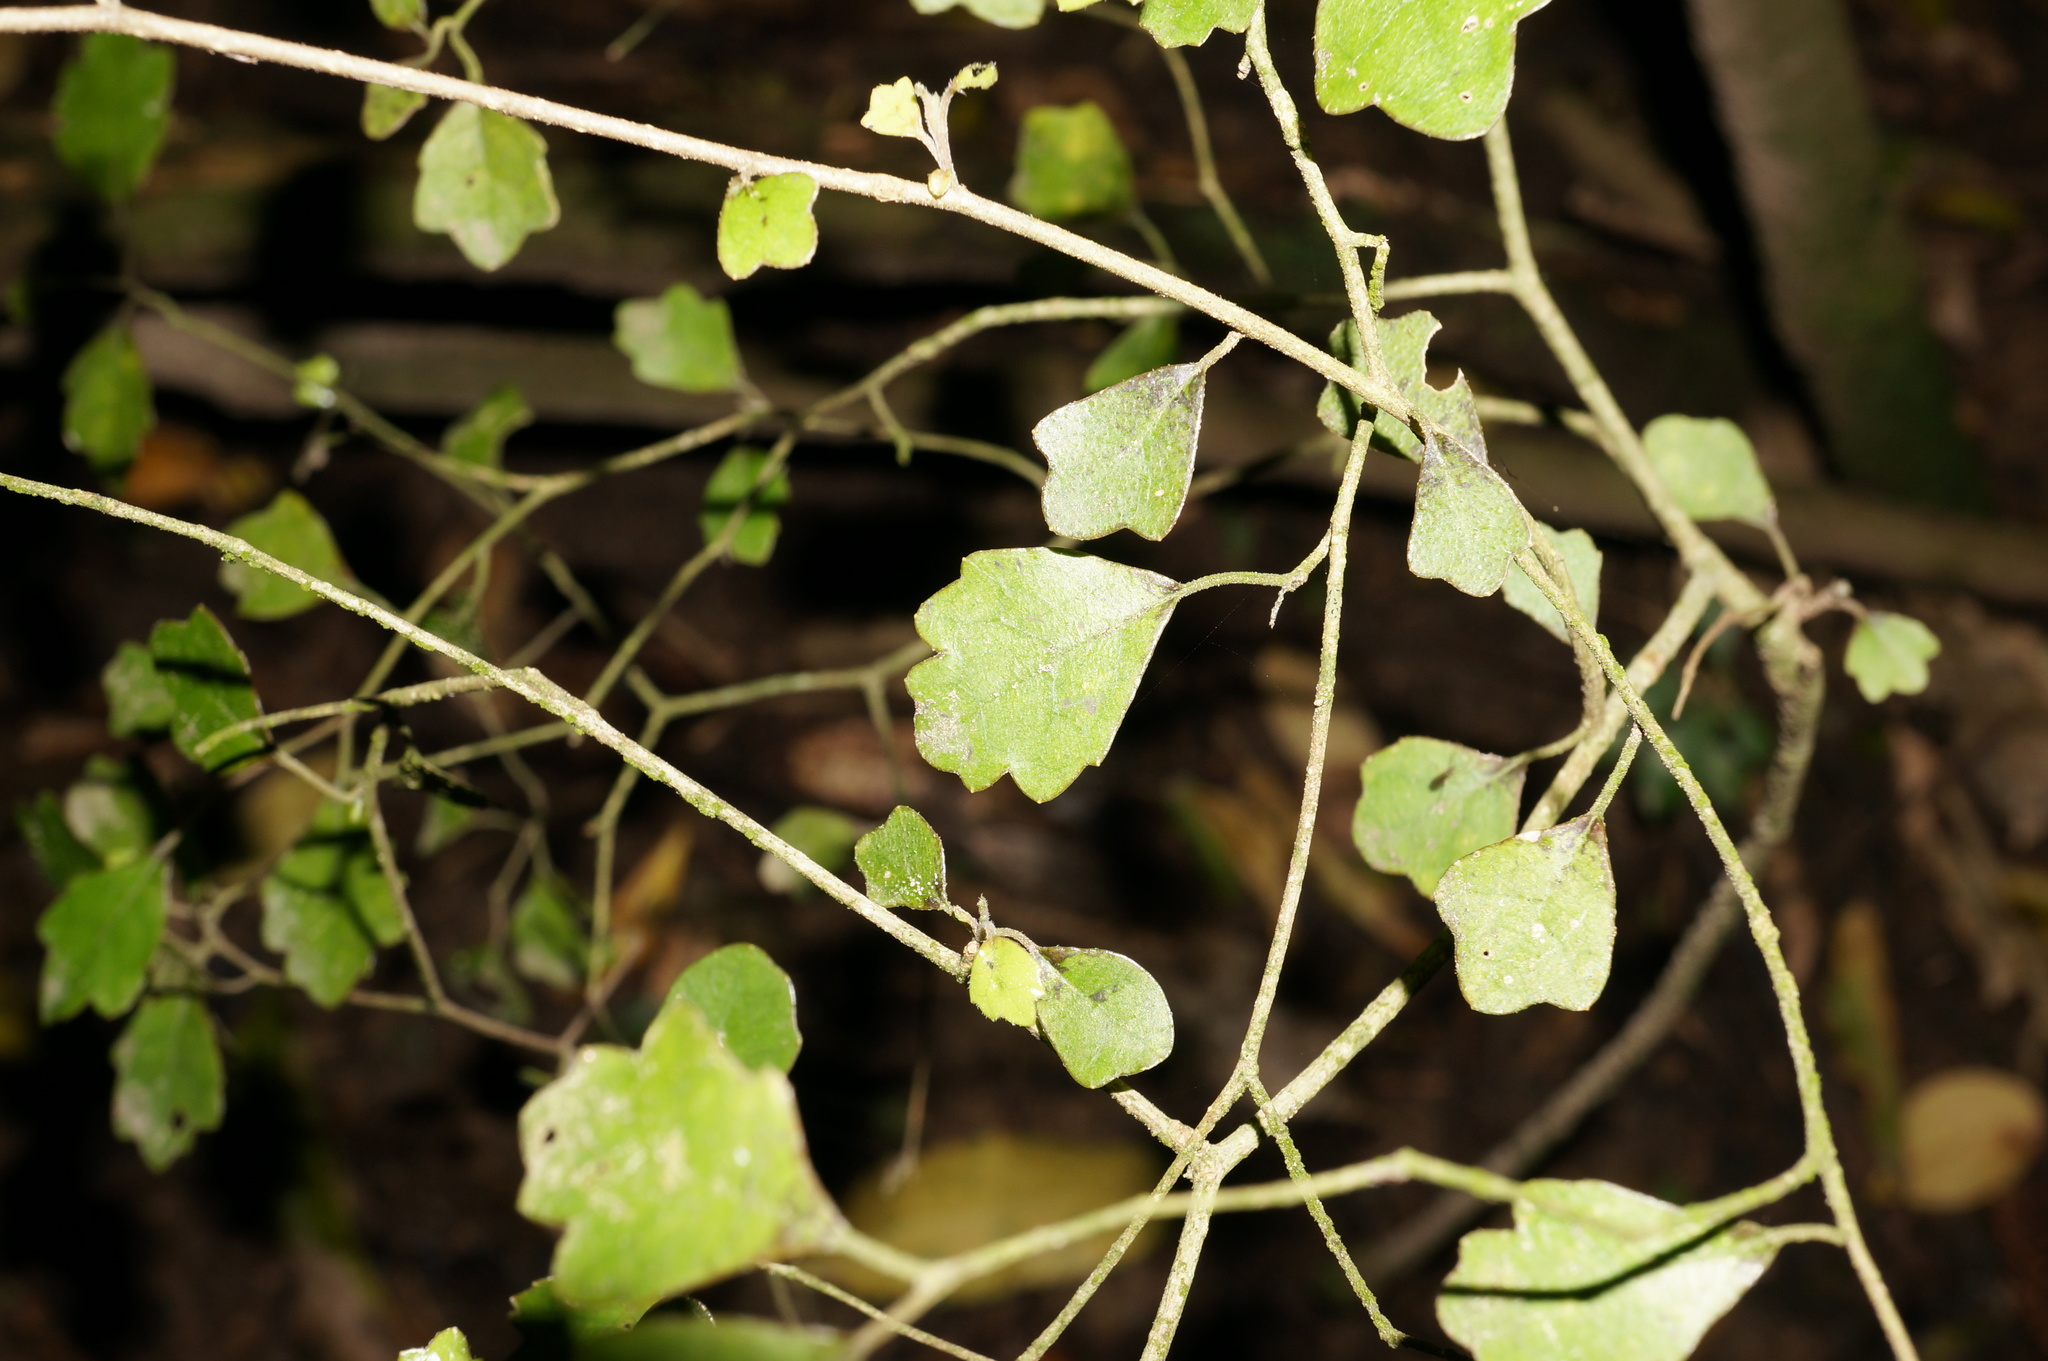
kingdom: Plantae
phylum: Tracheophyta
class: Magnoliopsida
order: Apiales
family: Pennantiaceae
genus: Pennantia
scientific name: Pennantia corymbosa
